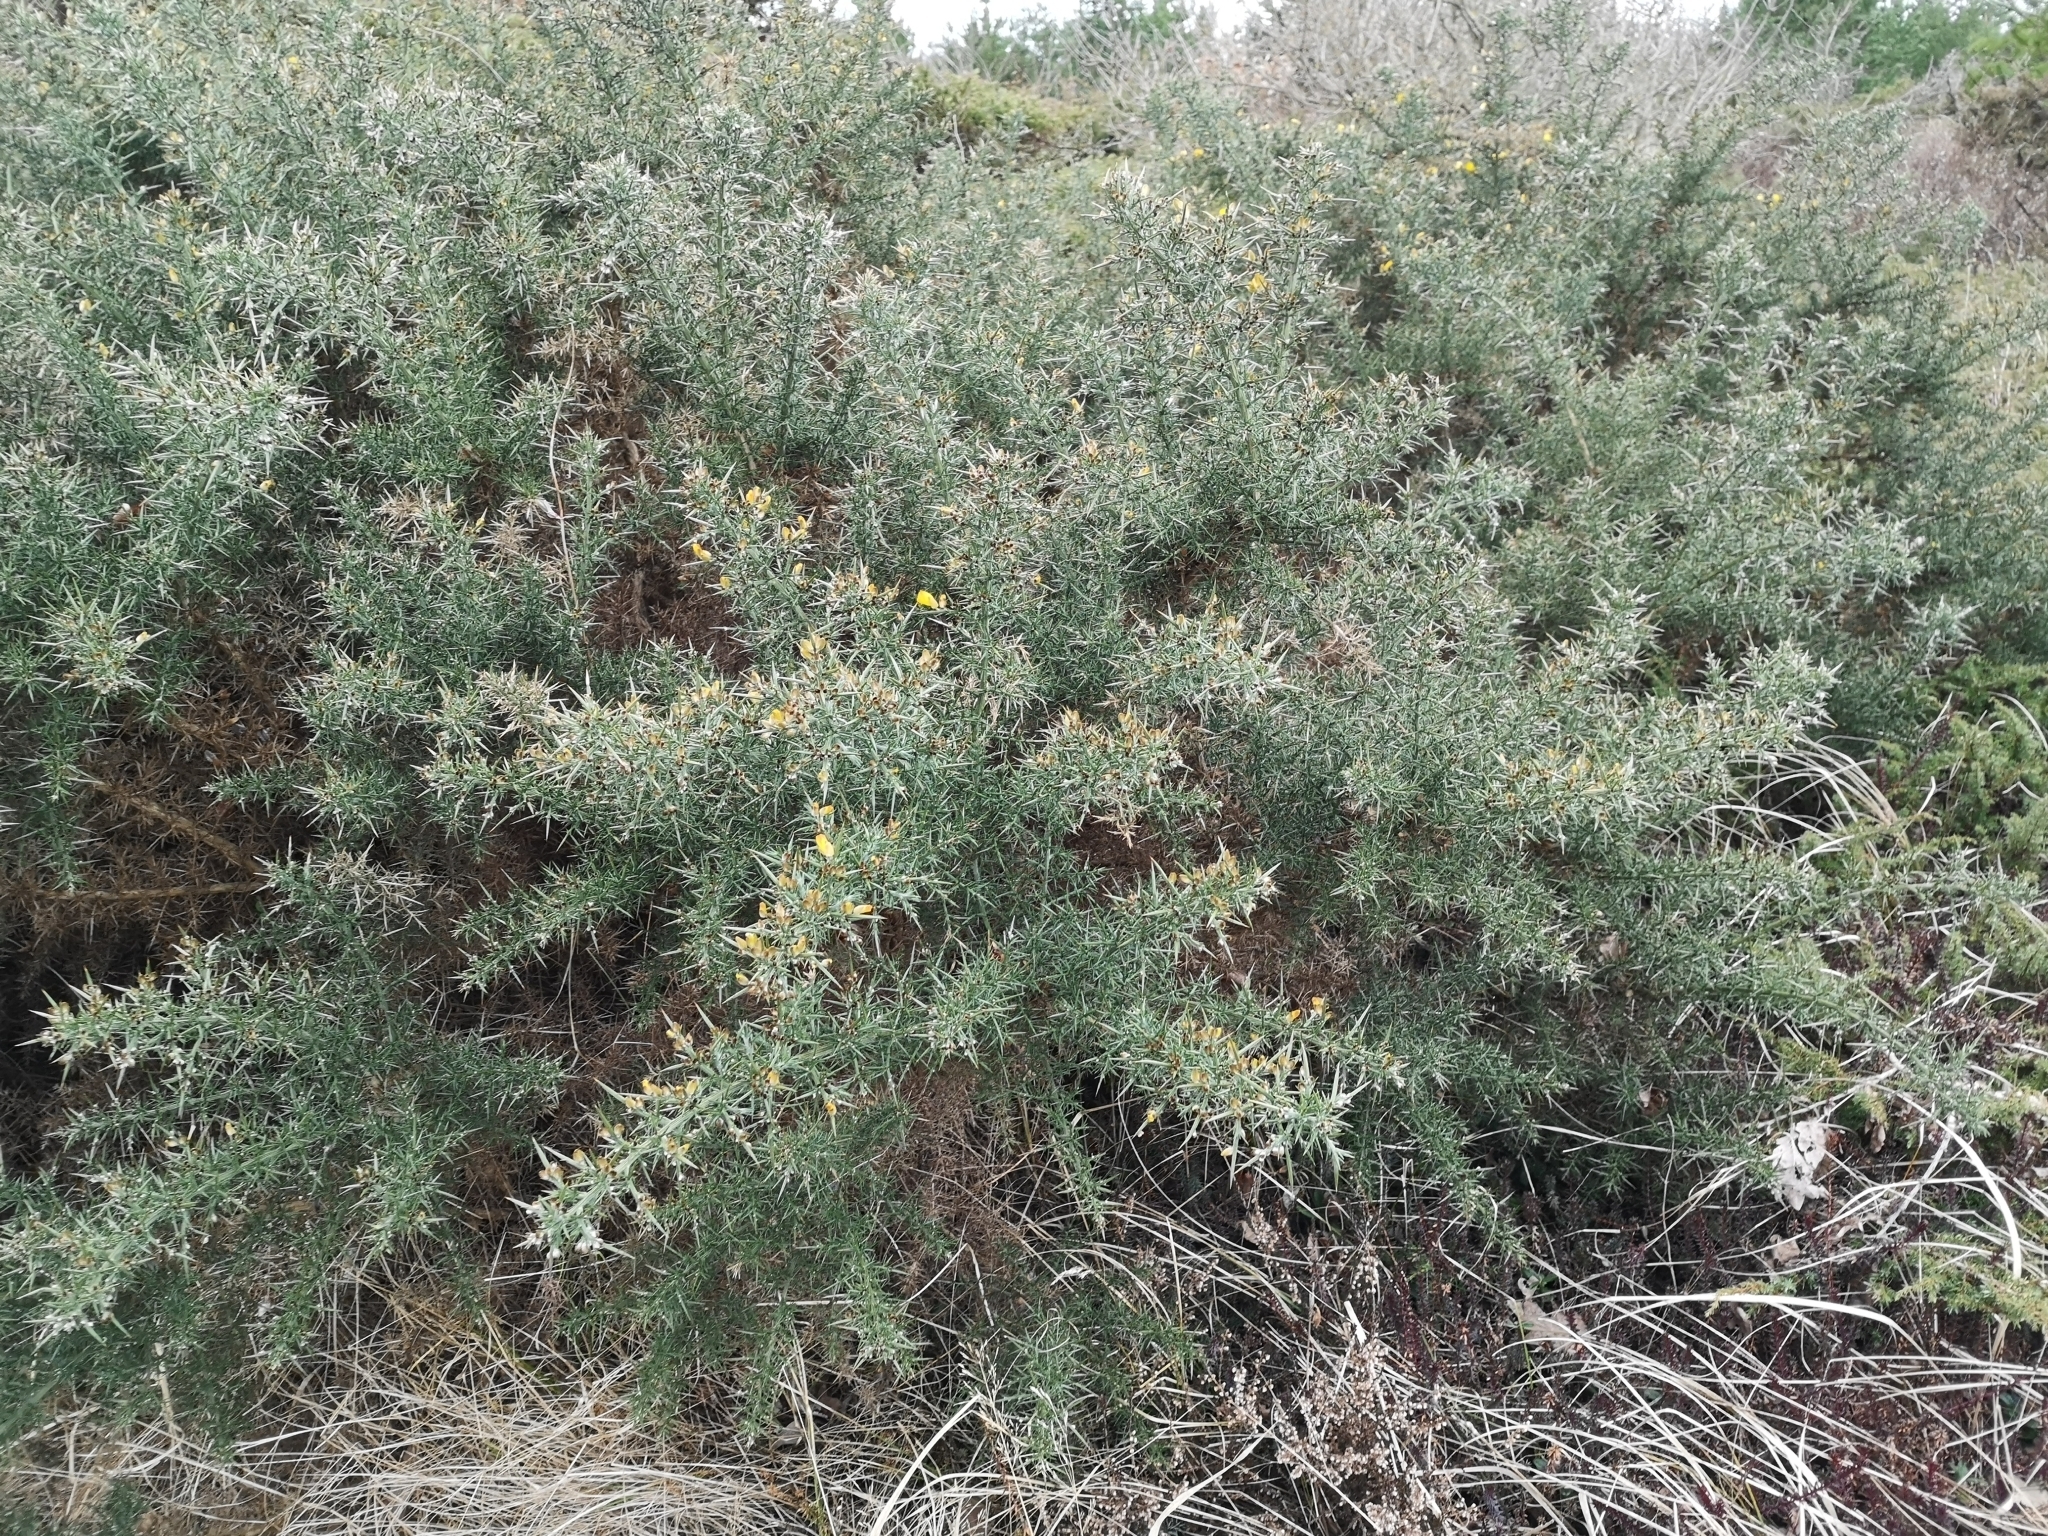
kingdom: Plantae
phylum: Tracheophyta
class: Magnoliopsida
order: Fabales
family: Fabaceae
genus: Ulex
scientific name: Ulex europaeus
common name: Common gorse
